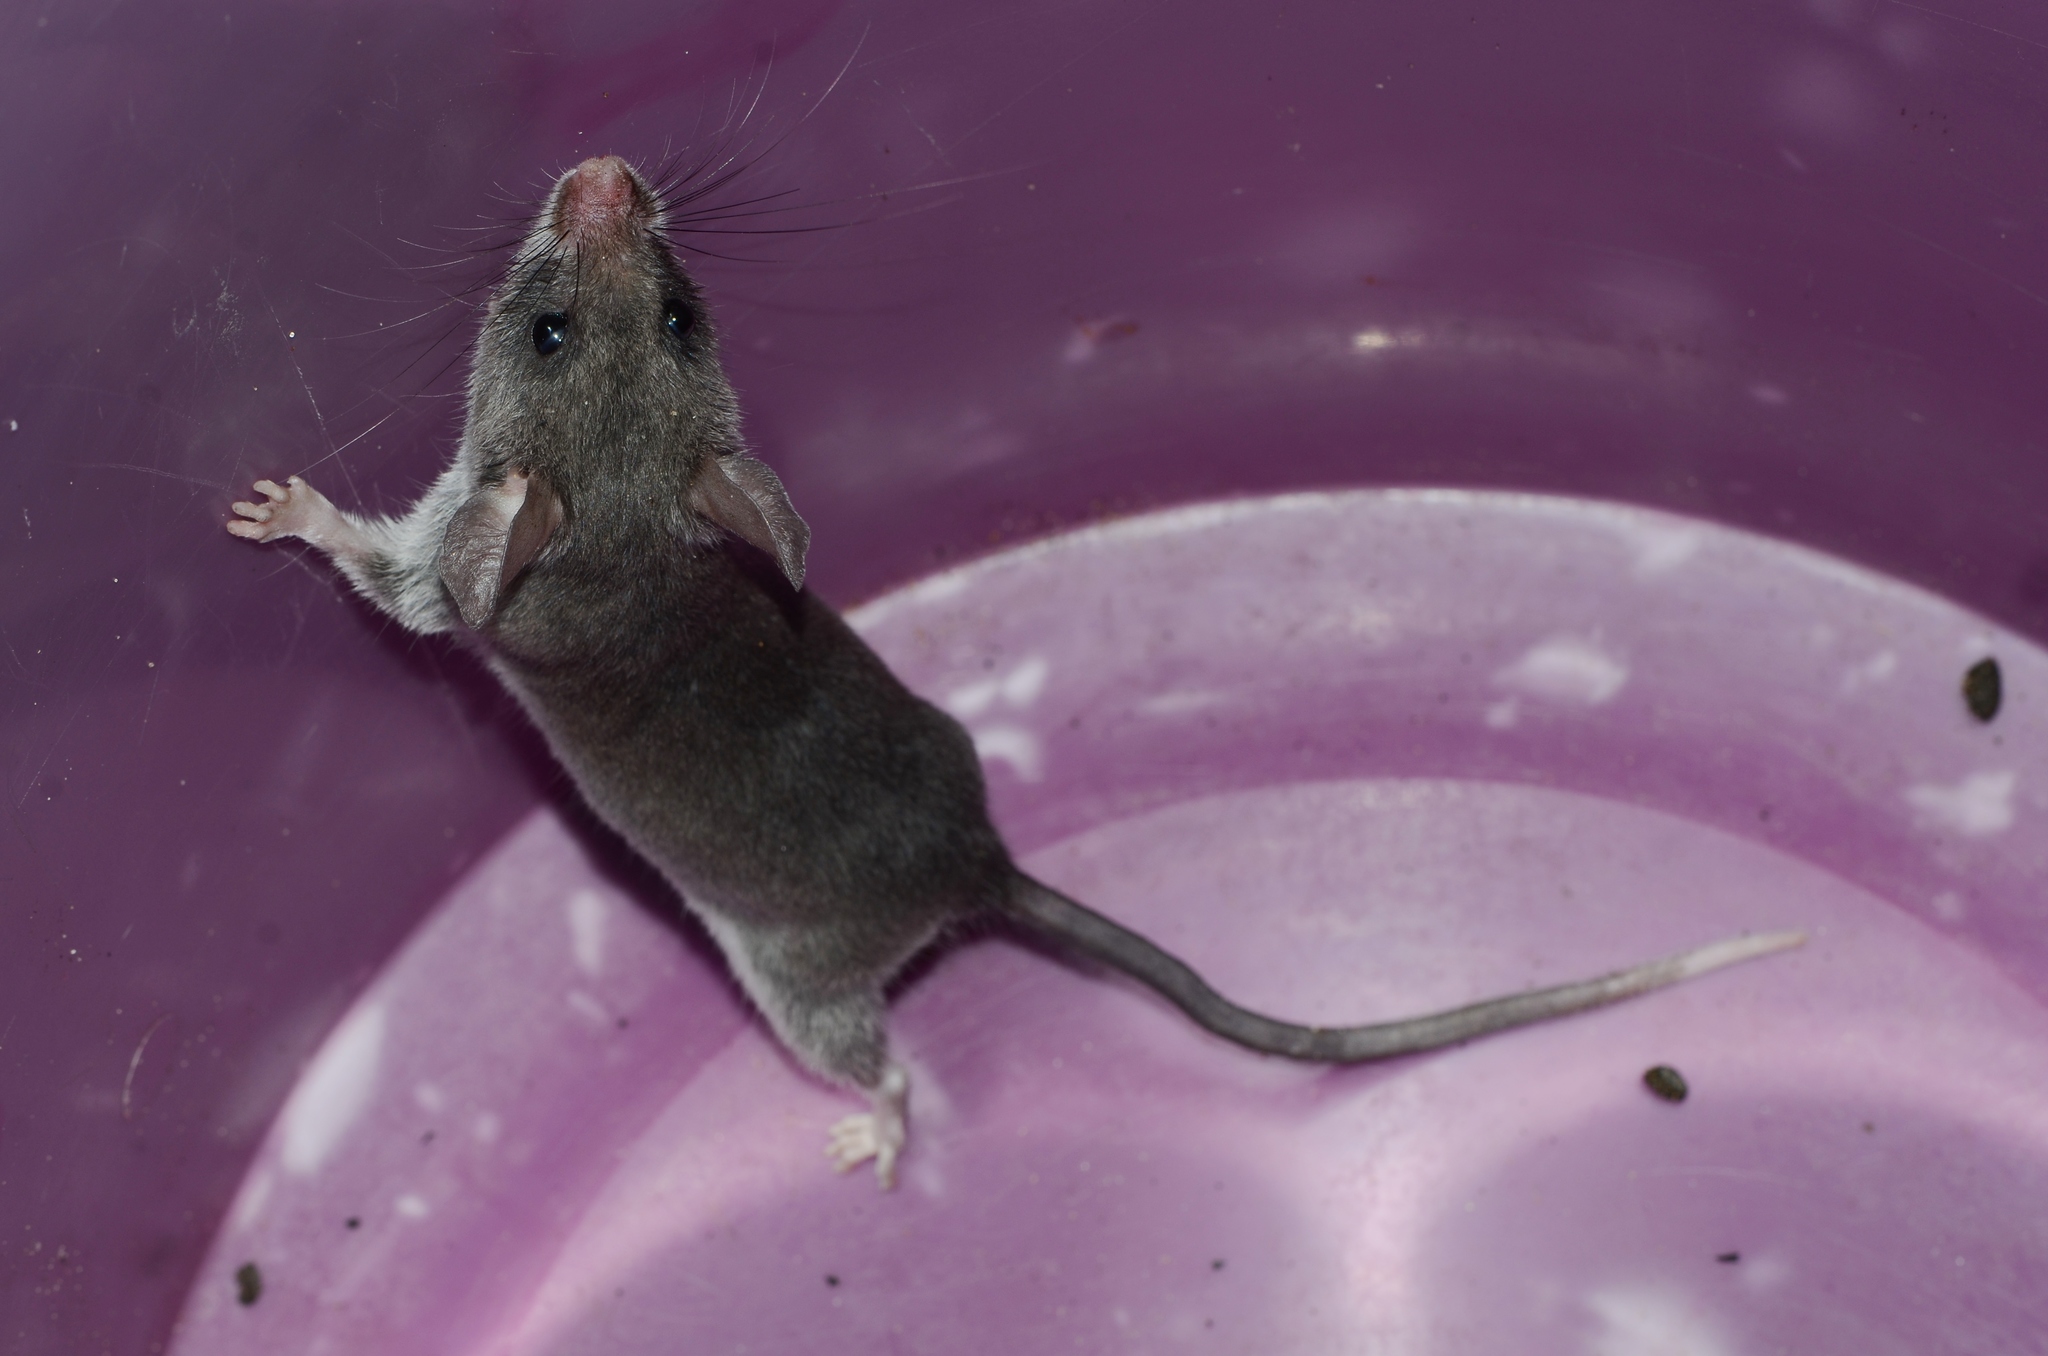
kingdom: Animalia
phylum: Chordata
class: Mammalia
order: Rodentia
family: Nesomyidae
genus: Beamys
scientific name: Beamys hindei
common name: Lesser hamster-rat, long-tailed pouched rat
